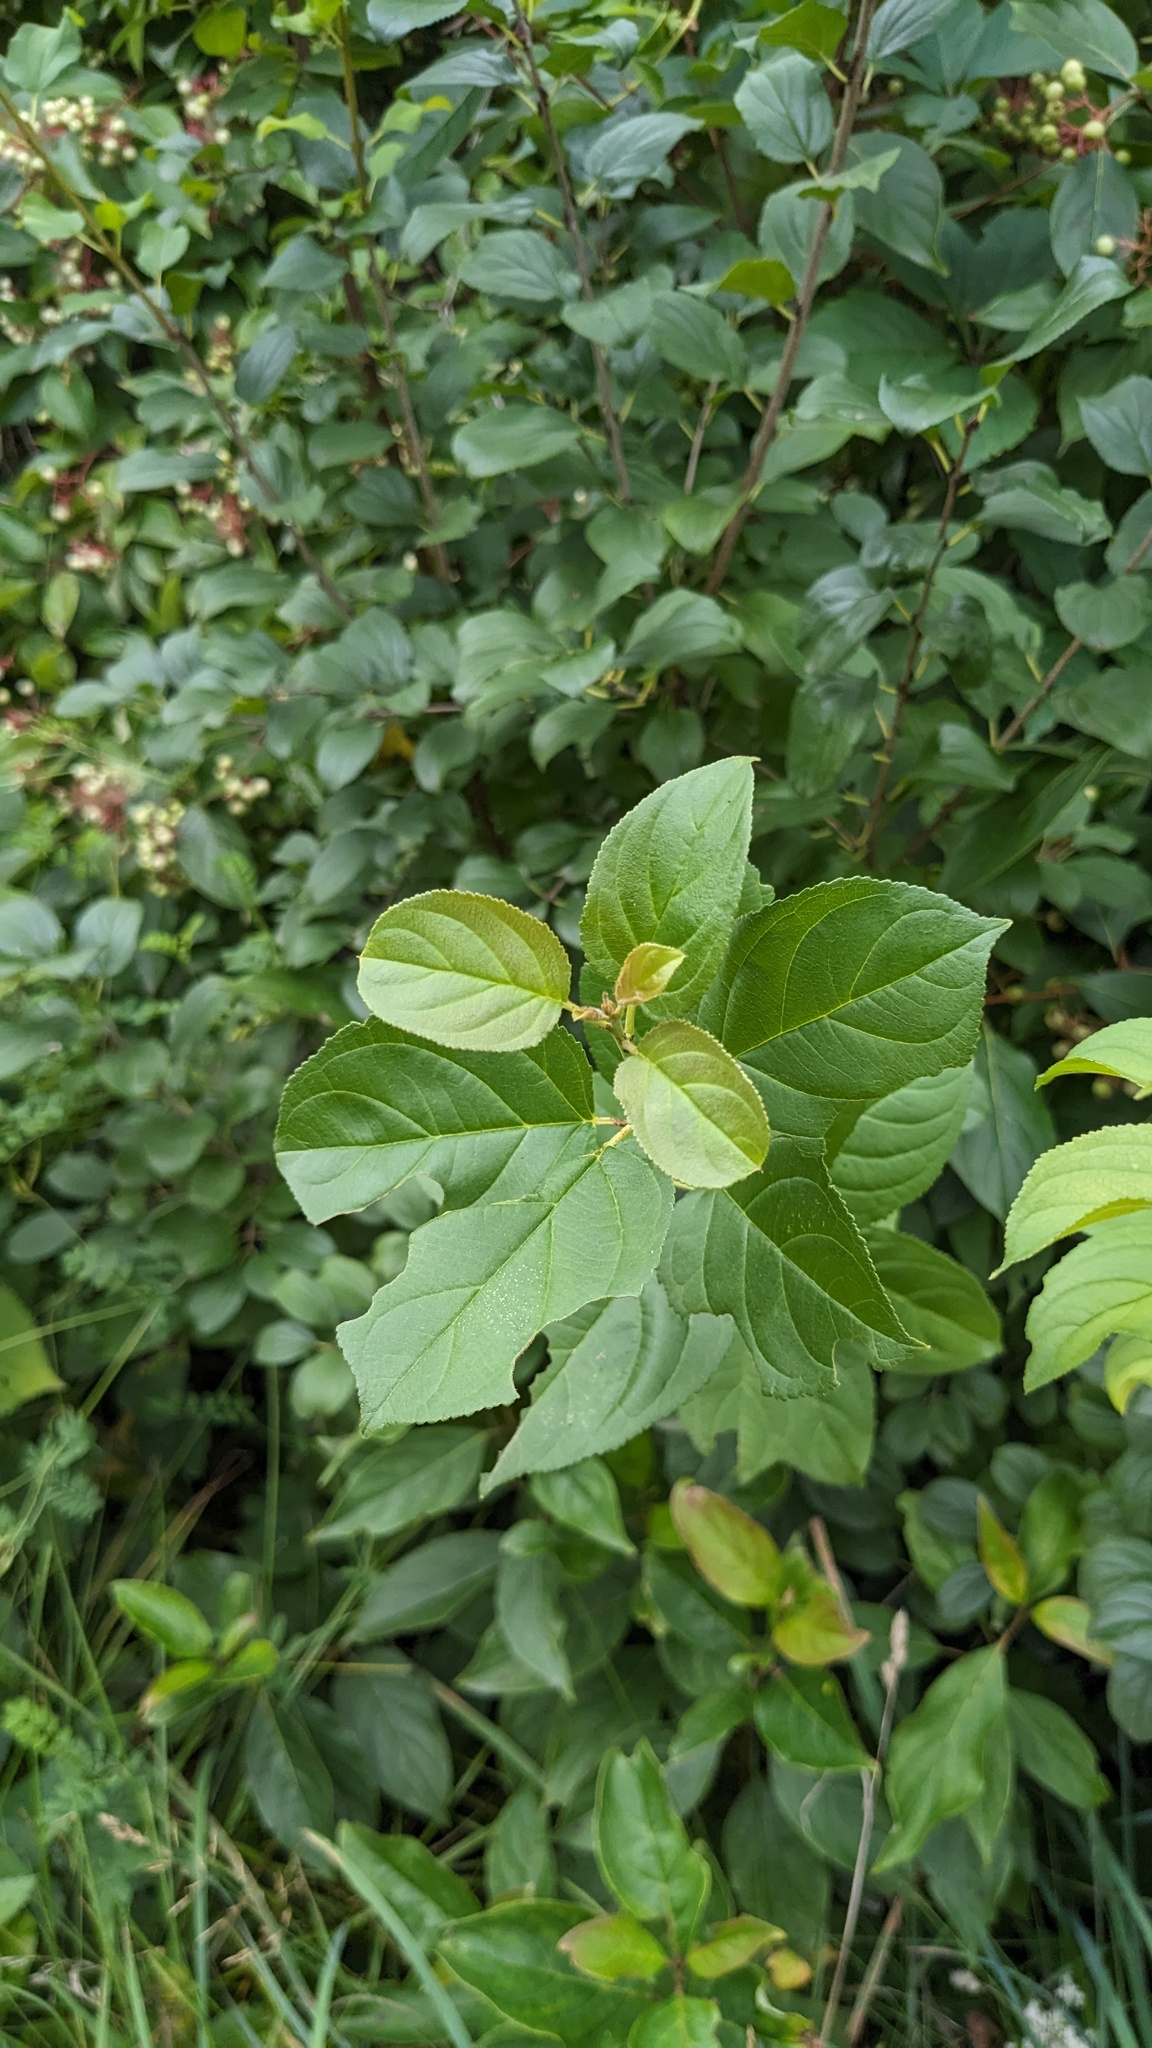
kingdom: Plantae
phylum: Tracheophyta
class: Magnoliopsida
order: Rosales
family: Rhamnaceae
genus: Rhamnus
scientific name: Rhamnus cathartica
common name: Common buckthorn
